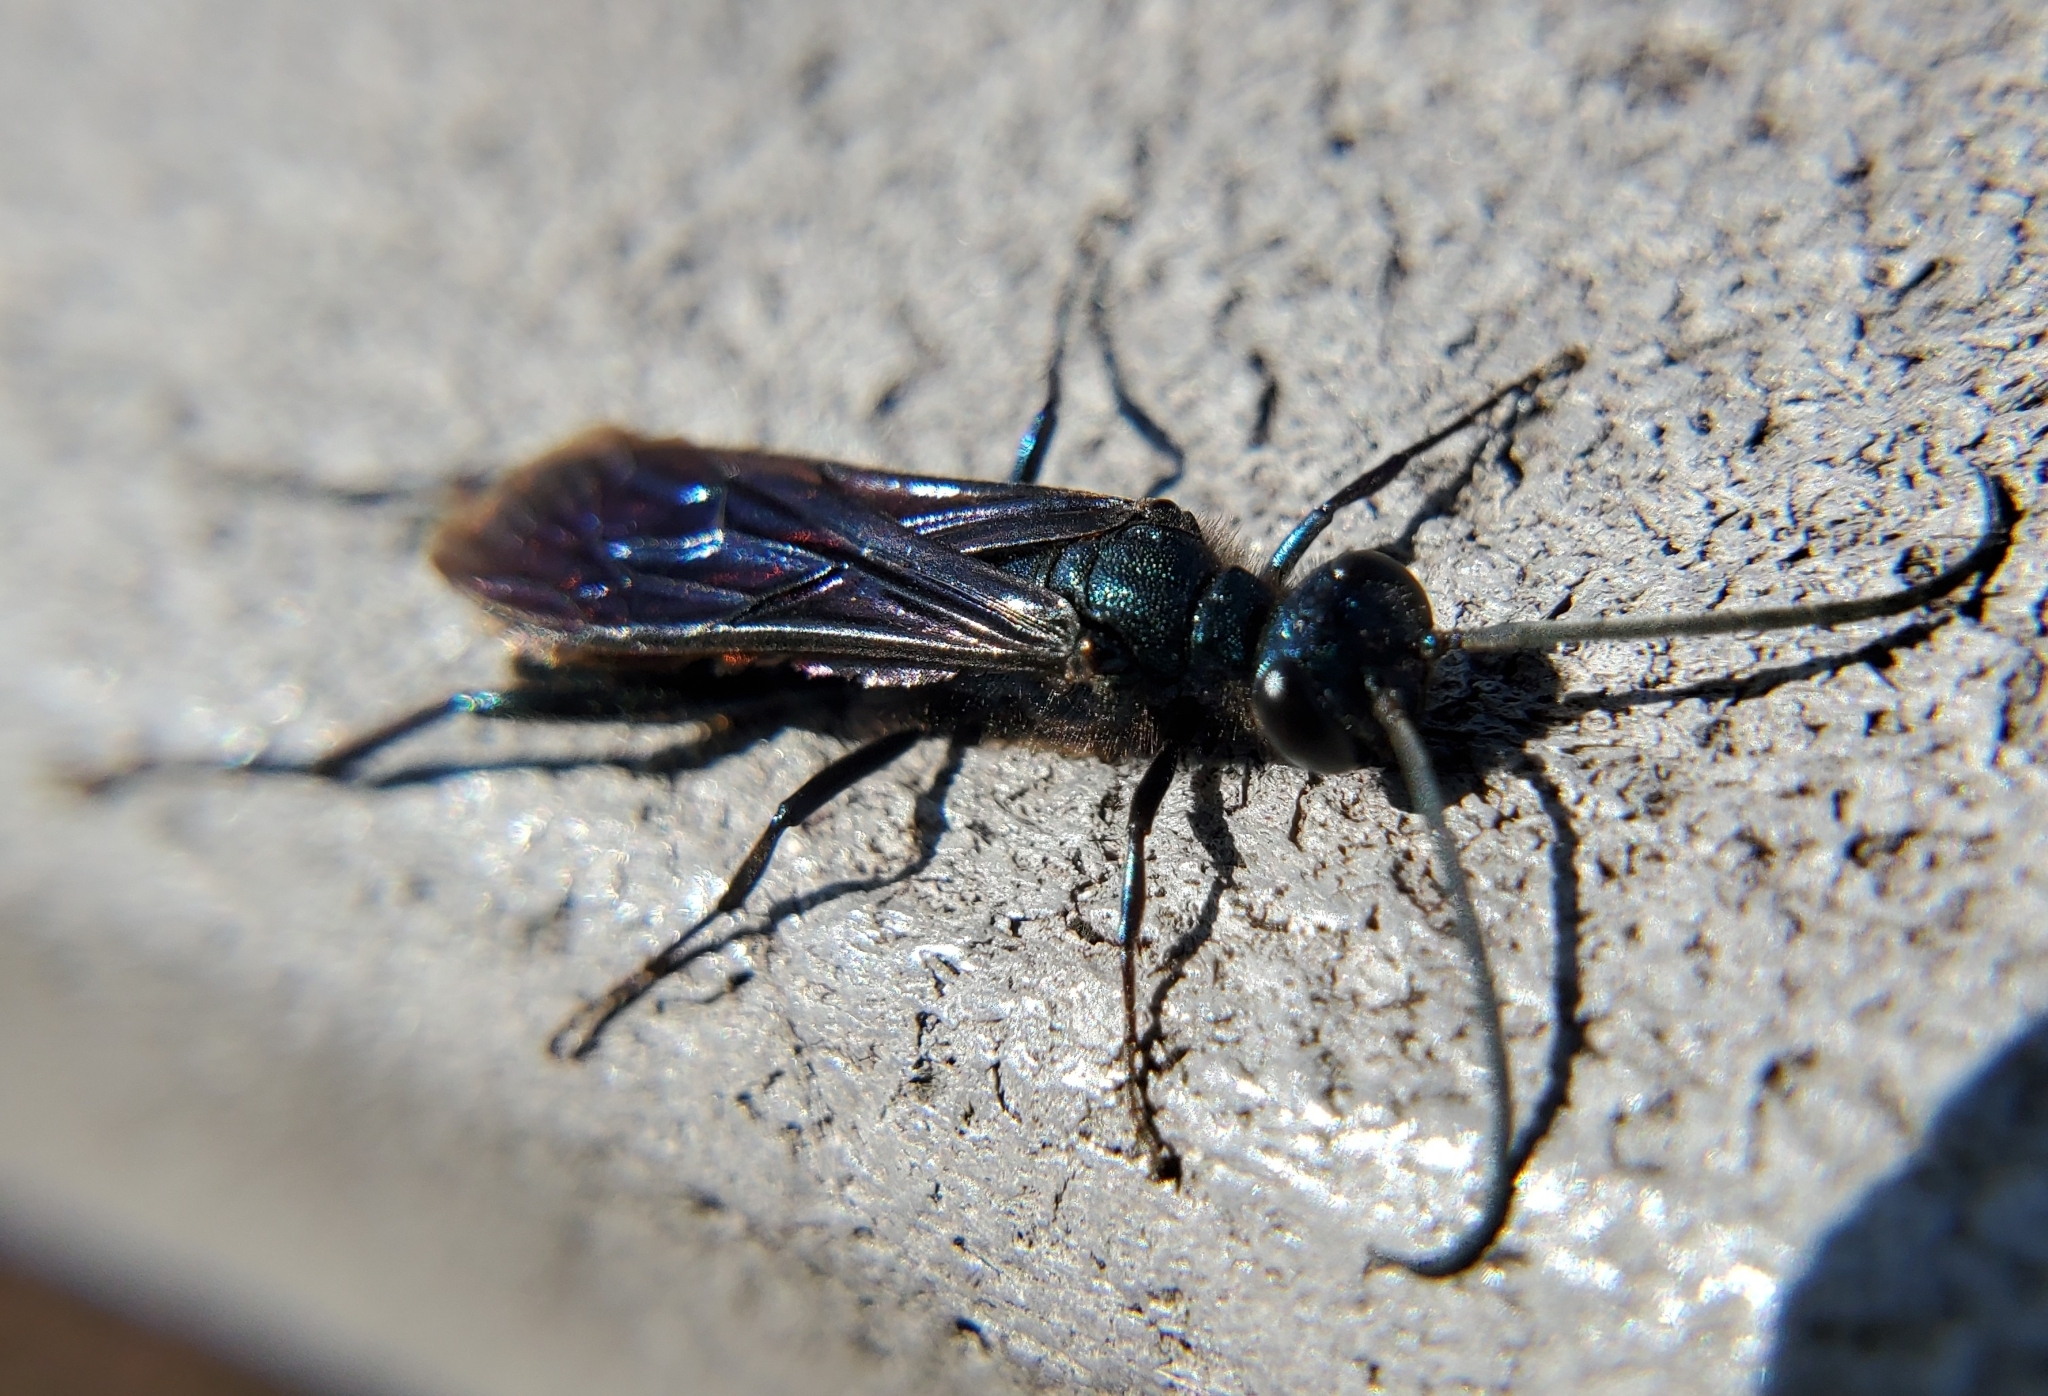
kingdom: Animalia
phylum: Arthropoda
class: Insecta
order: Hymenoptera
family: Sphecidae
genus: Chalybion
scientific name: Chalybion californicum
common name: Mud dauber
